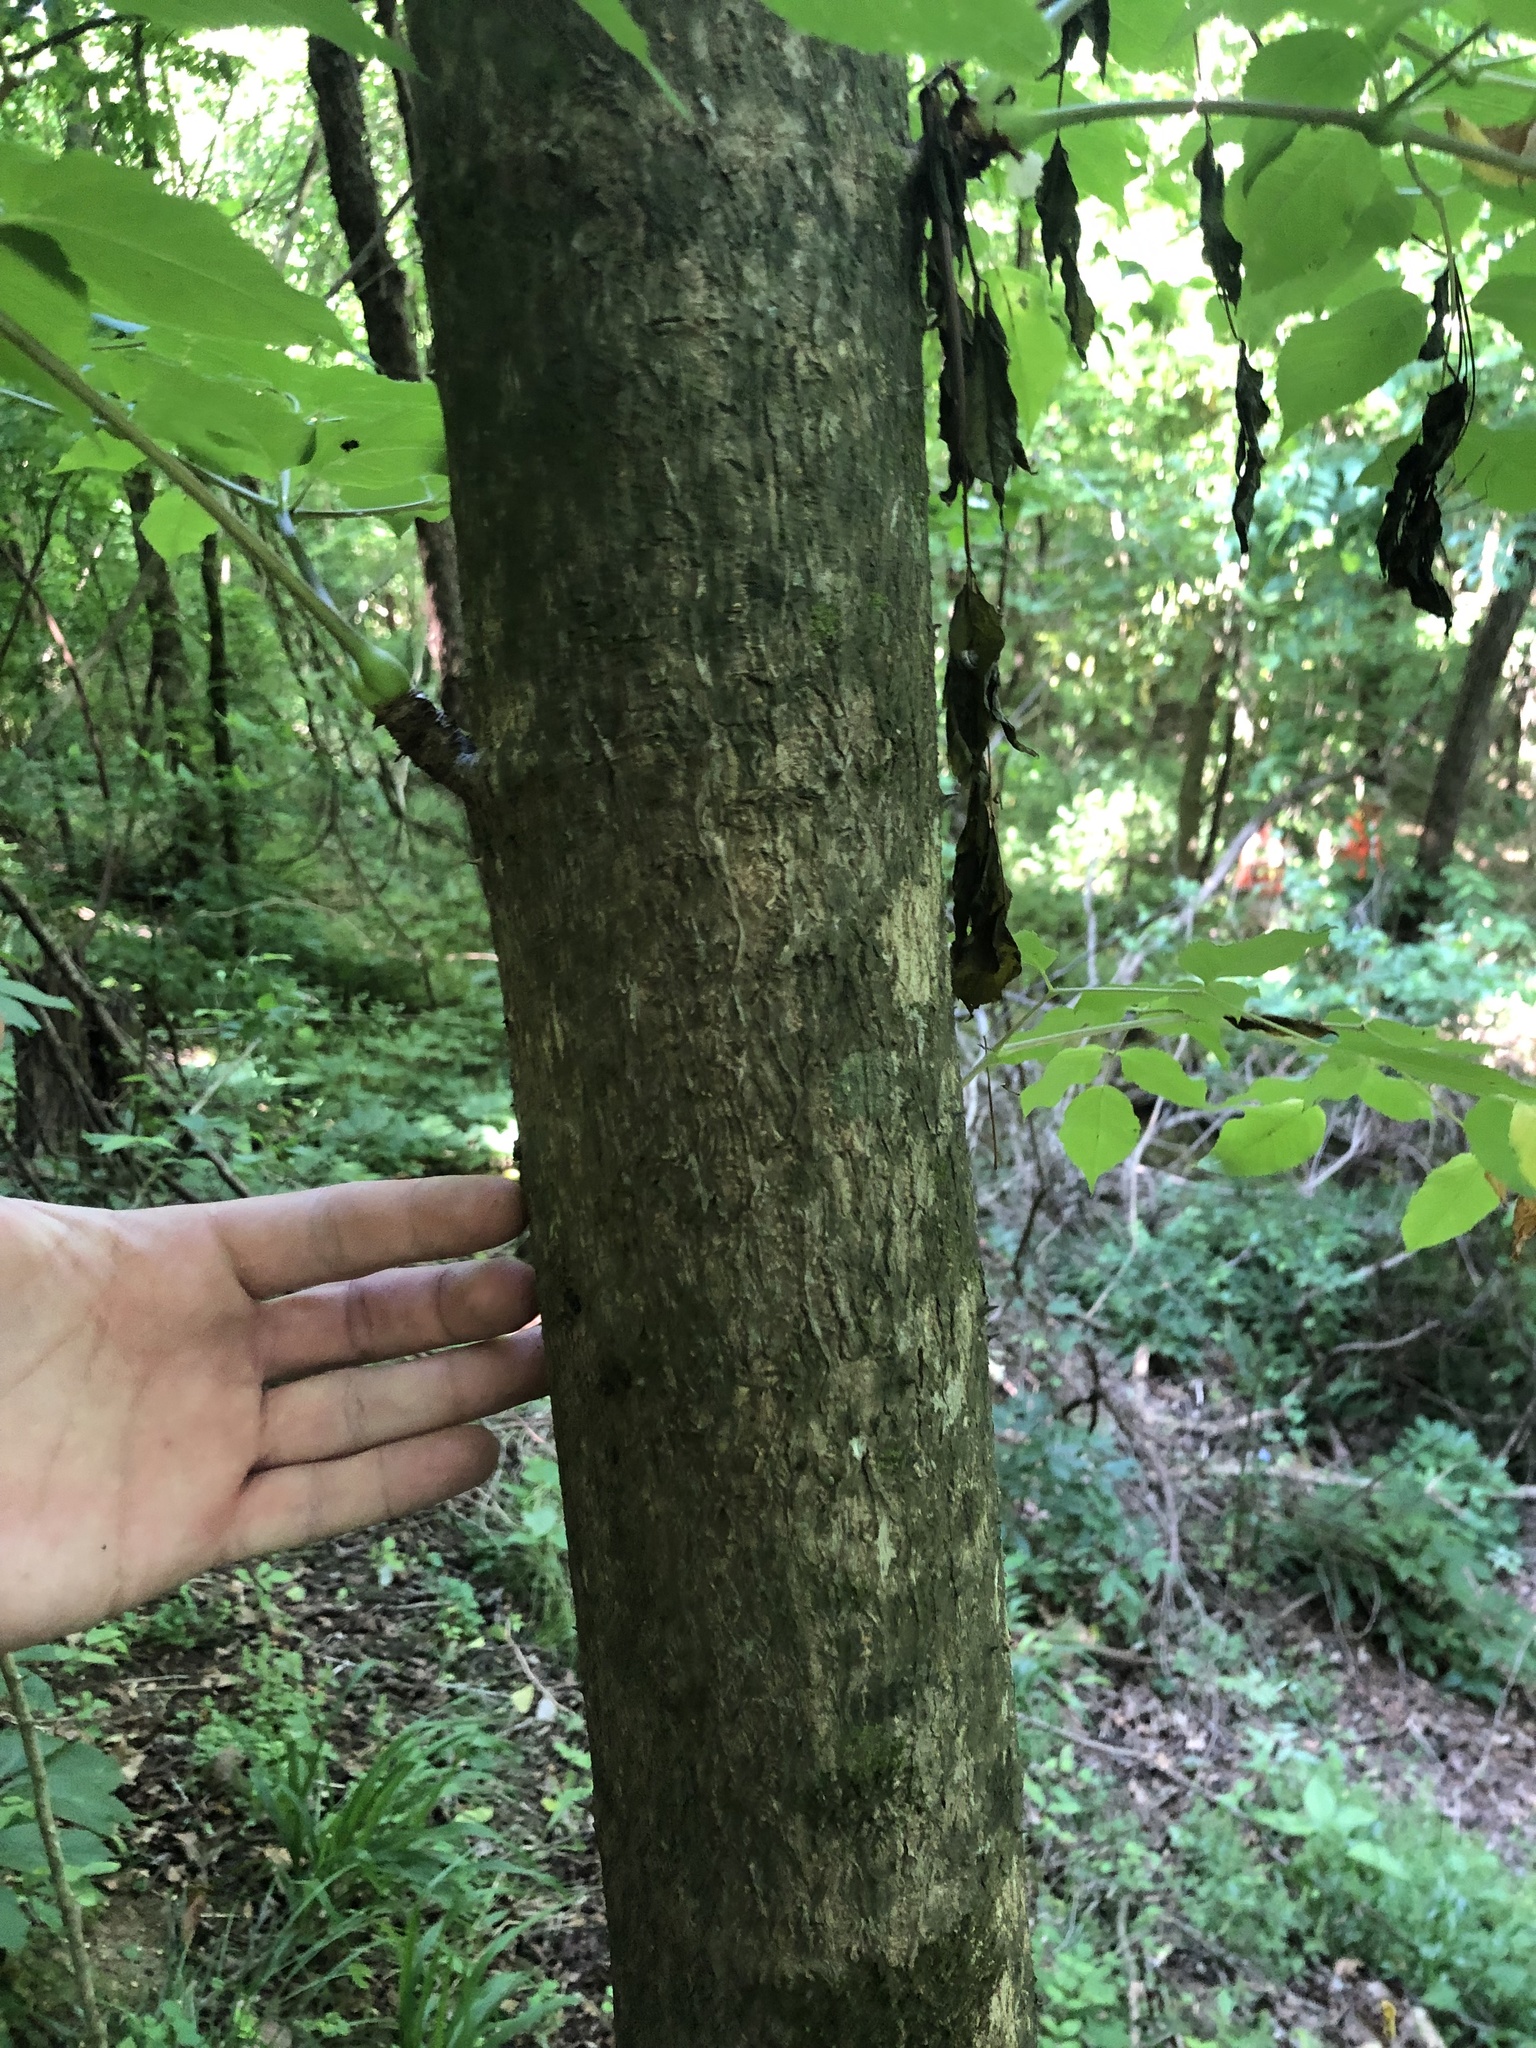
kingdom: Plantae
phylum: Tracheophyta
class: Magnoliopsida
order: Apiales
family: Araliaceae
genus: Aralia
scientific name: Aralia spinosa
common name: Hercules'-club
